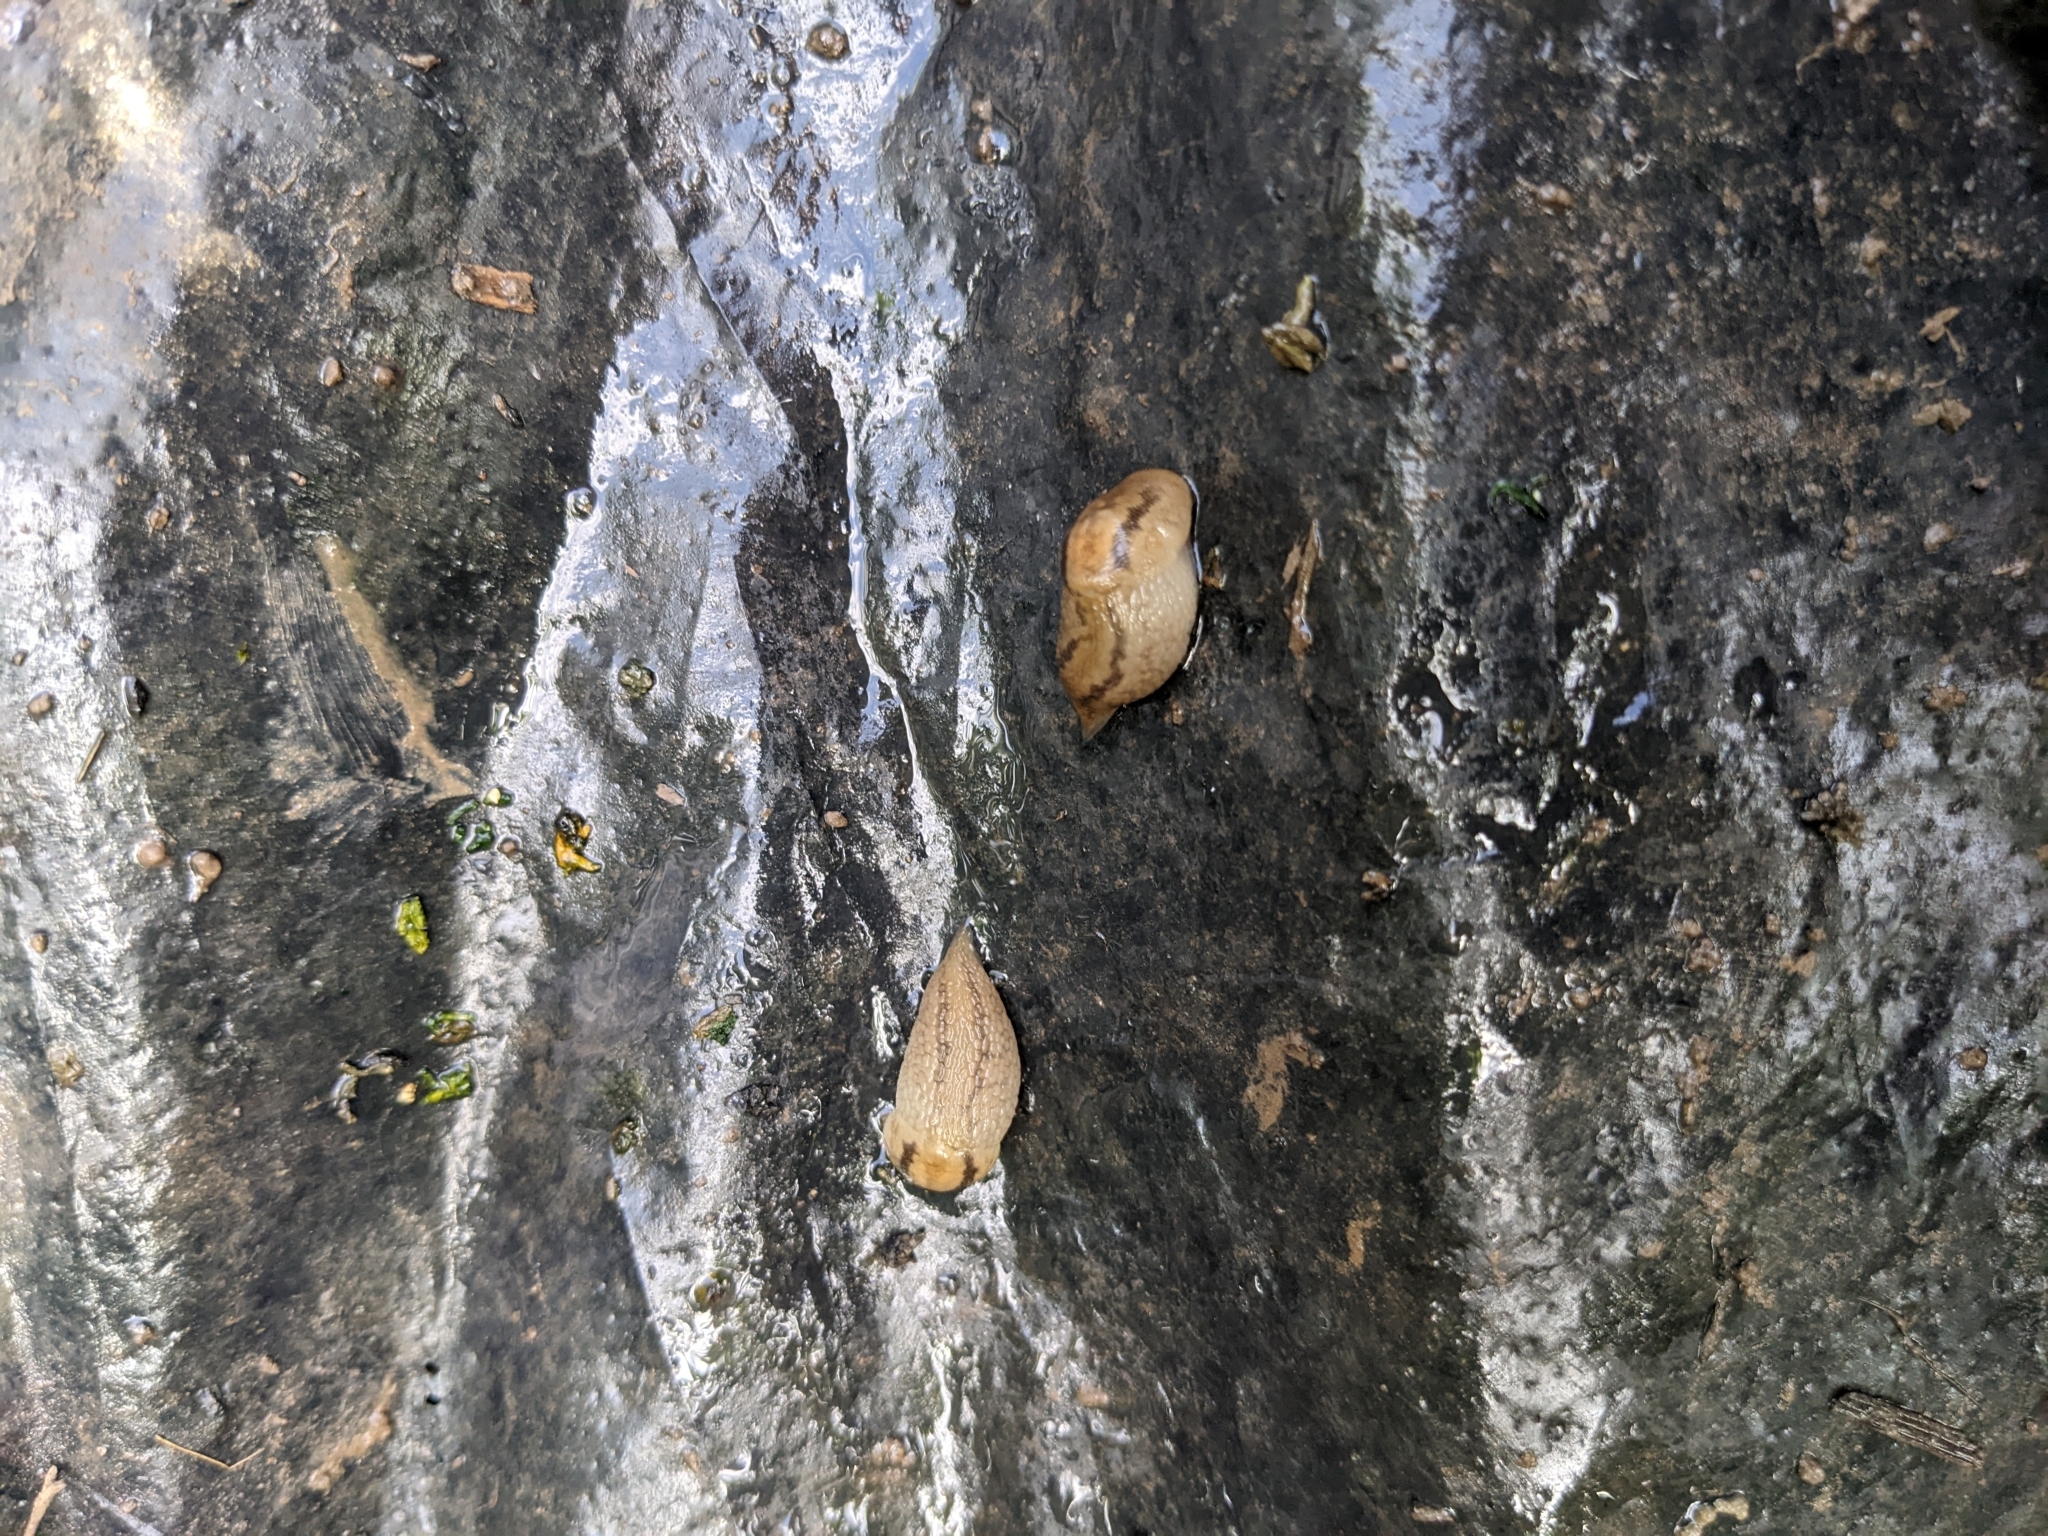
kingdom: Animalia
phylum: Mollusca
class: Gastropoda
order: Stylommatophora
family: Limacidae
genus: Ambigolimax
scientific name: Ambigolimax
